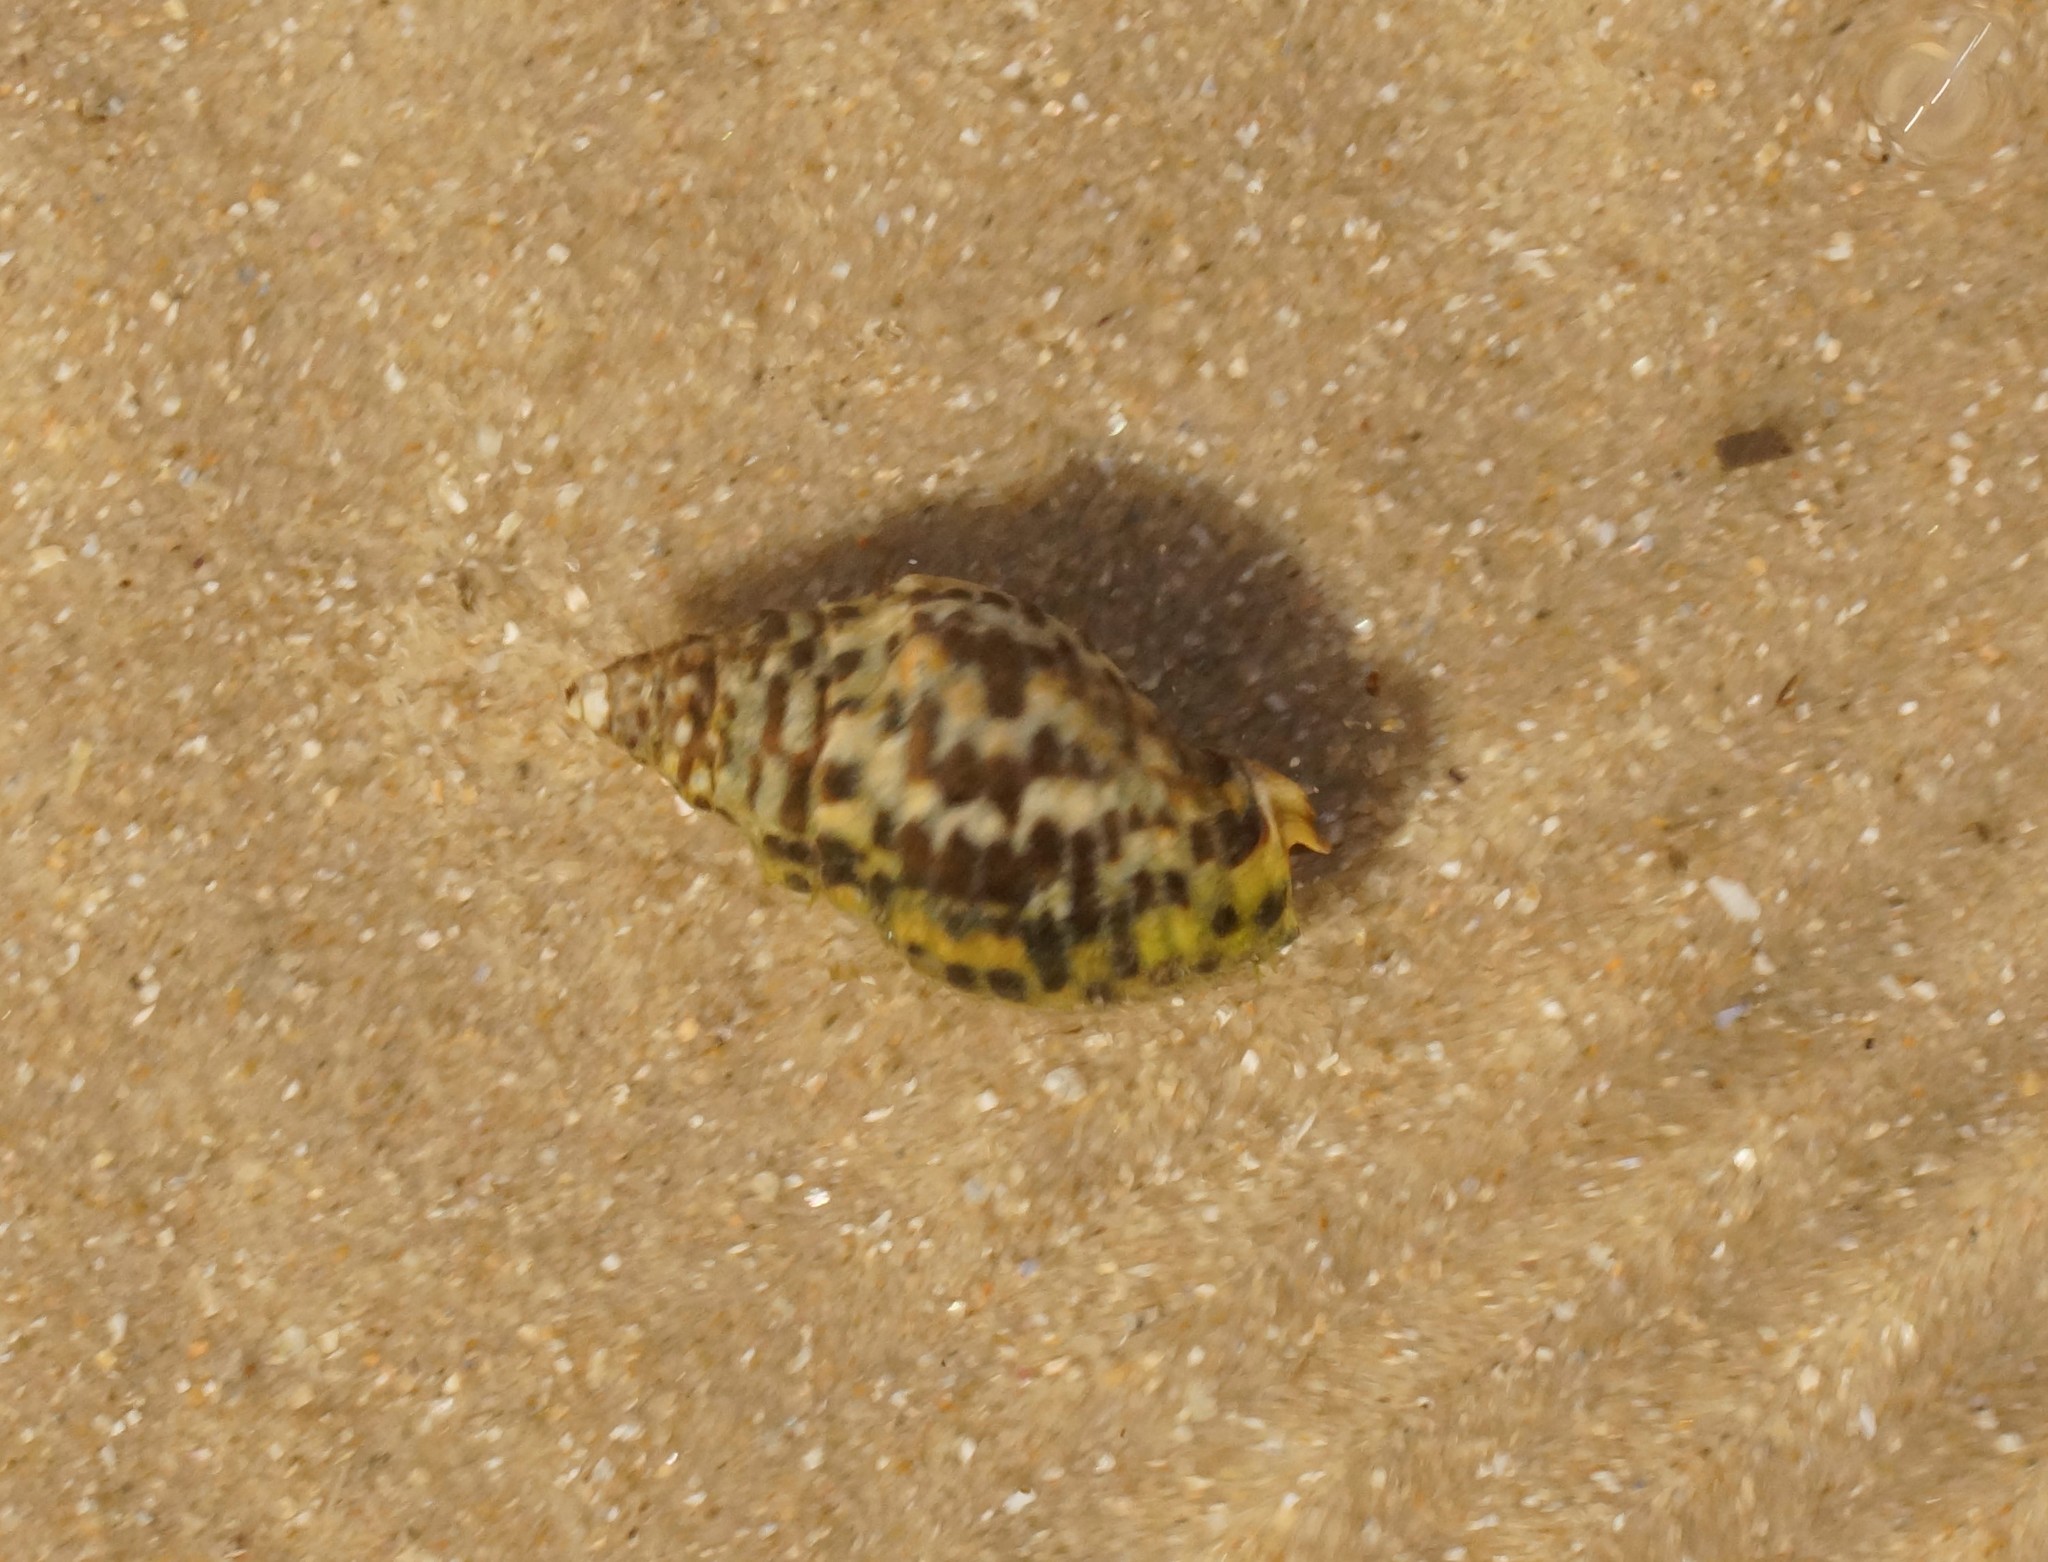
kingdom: Animalia
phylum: Mollusca
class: Gastropoda
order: Neogastropoda
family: Cominellidae
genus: Cominella
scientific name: Cominella lineolata
